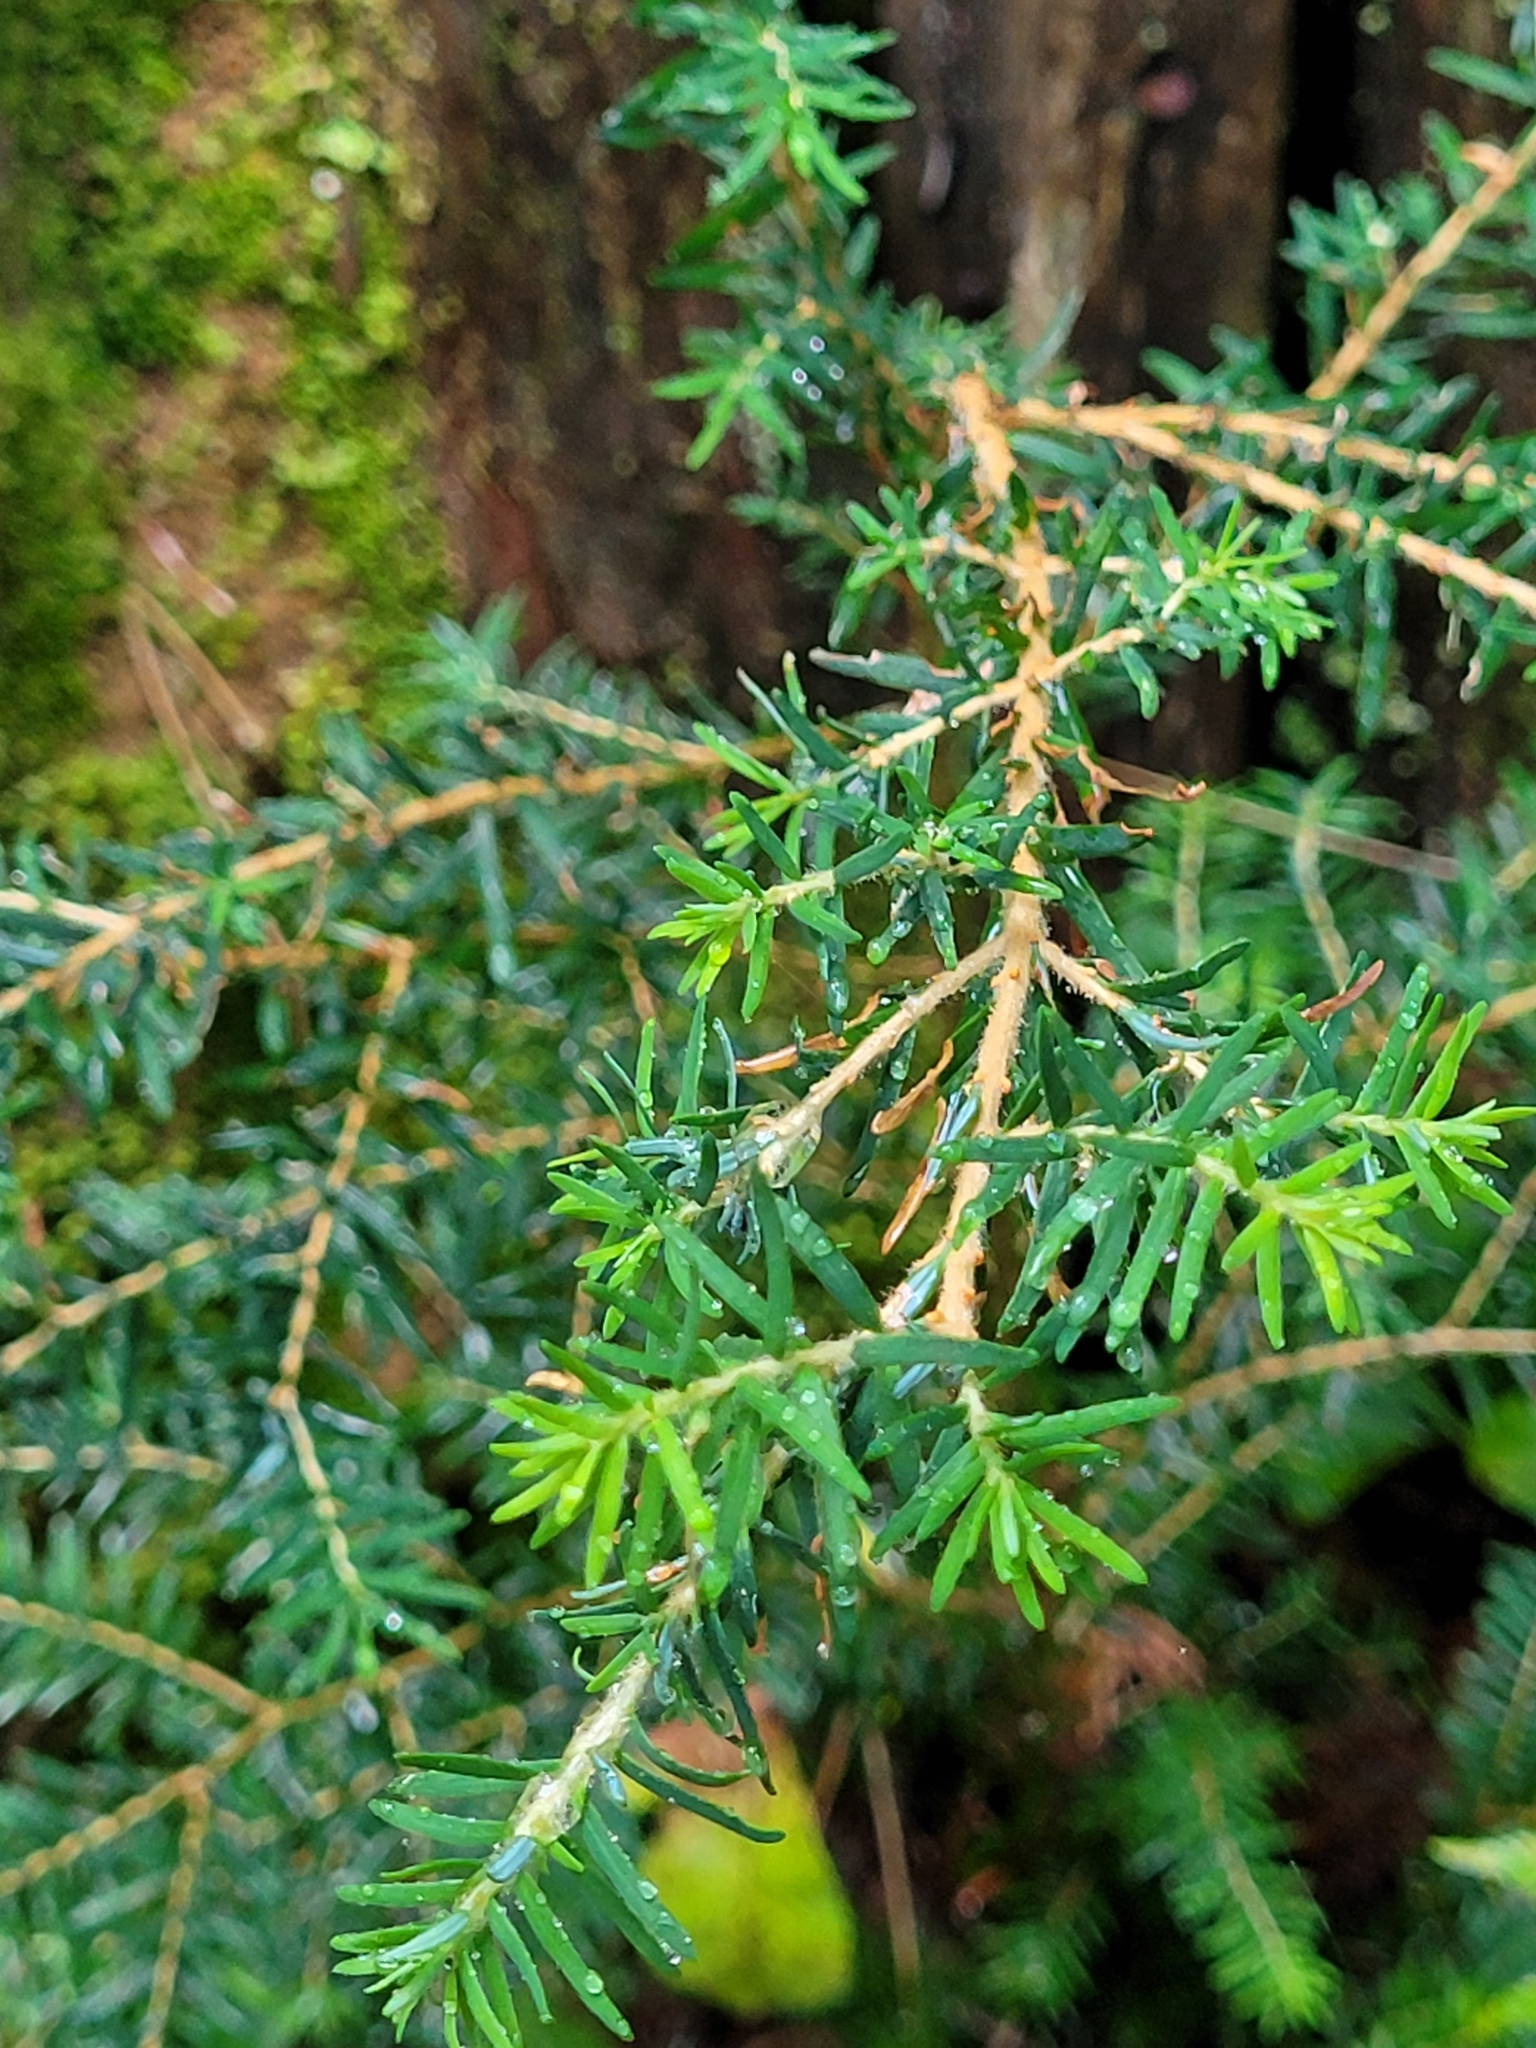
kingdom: Plantae
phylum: Tracheophyta
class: Pinopsida
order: Pinales
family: Pinaceae
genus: Tsuga
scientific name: Tsuga heterophylla
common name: Western hemlock
